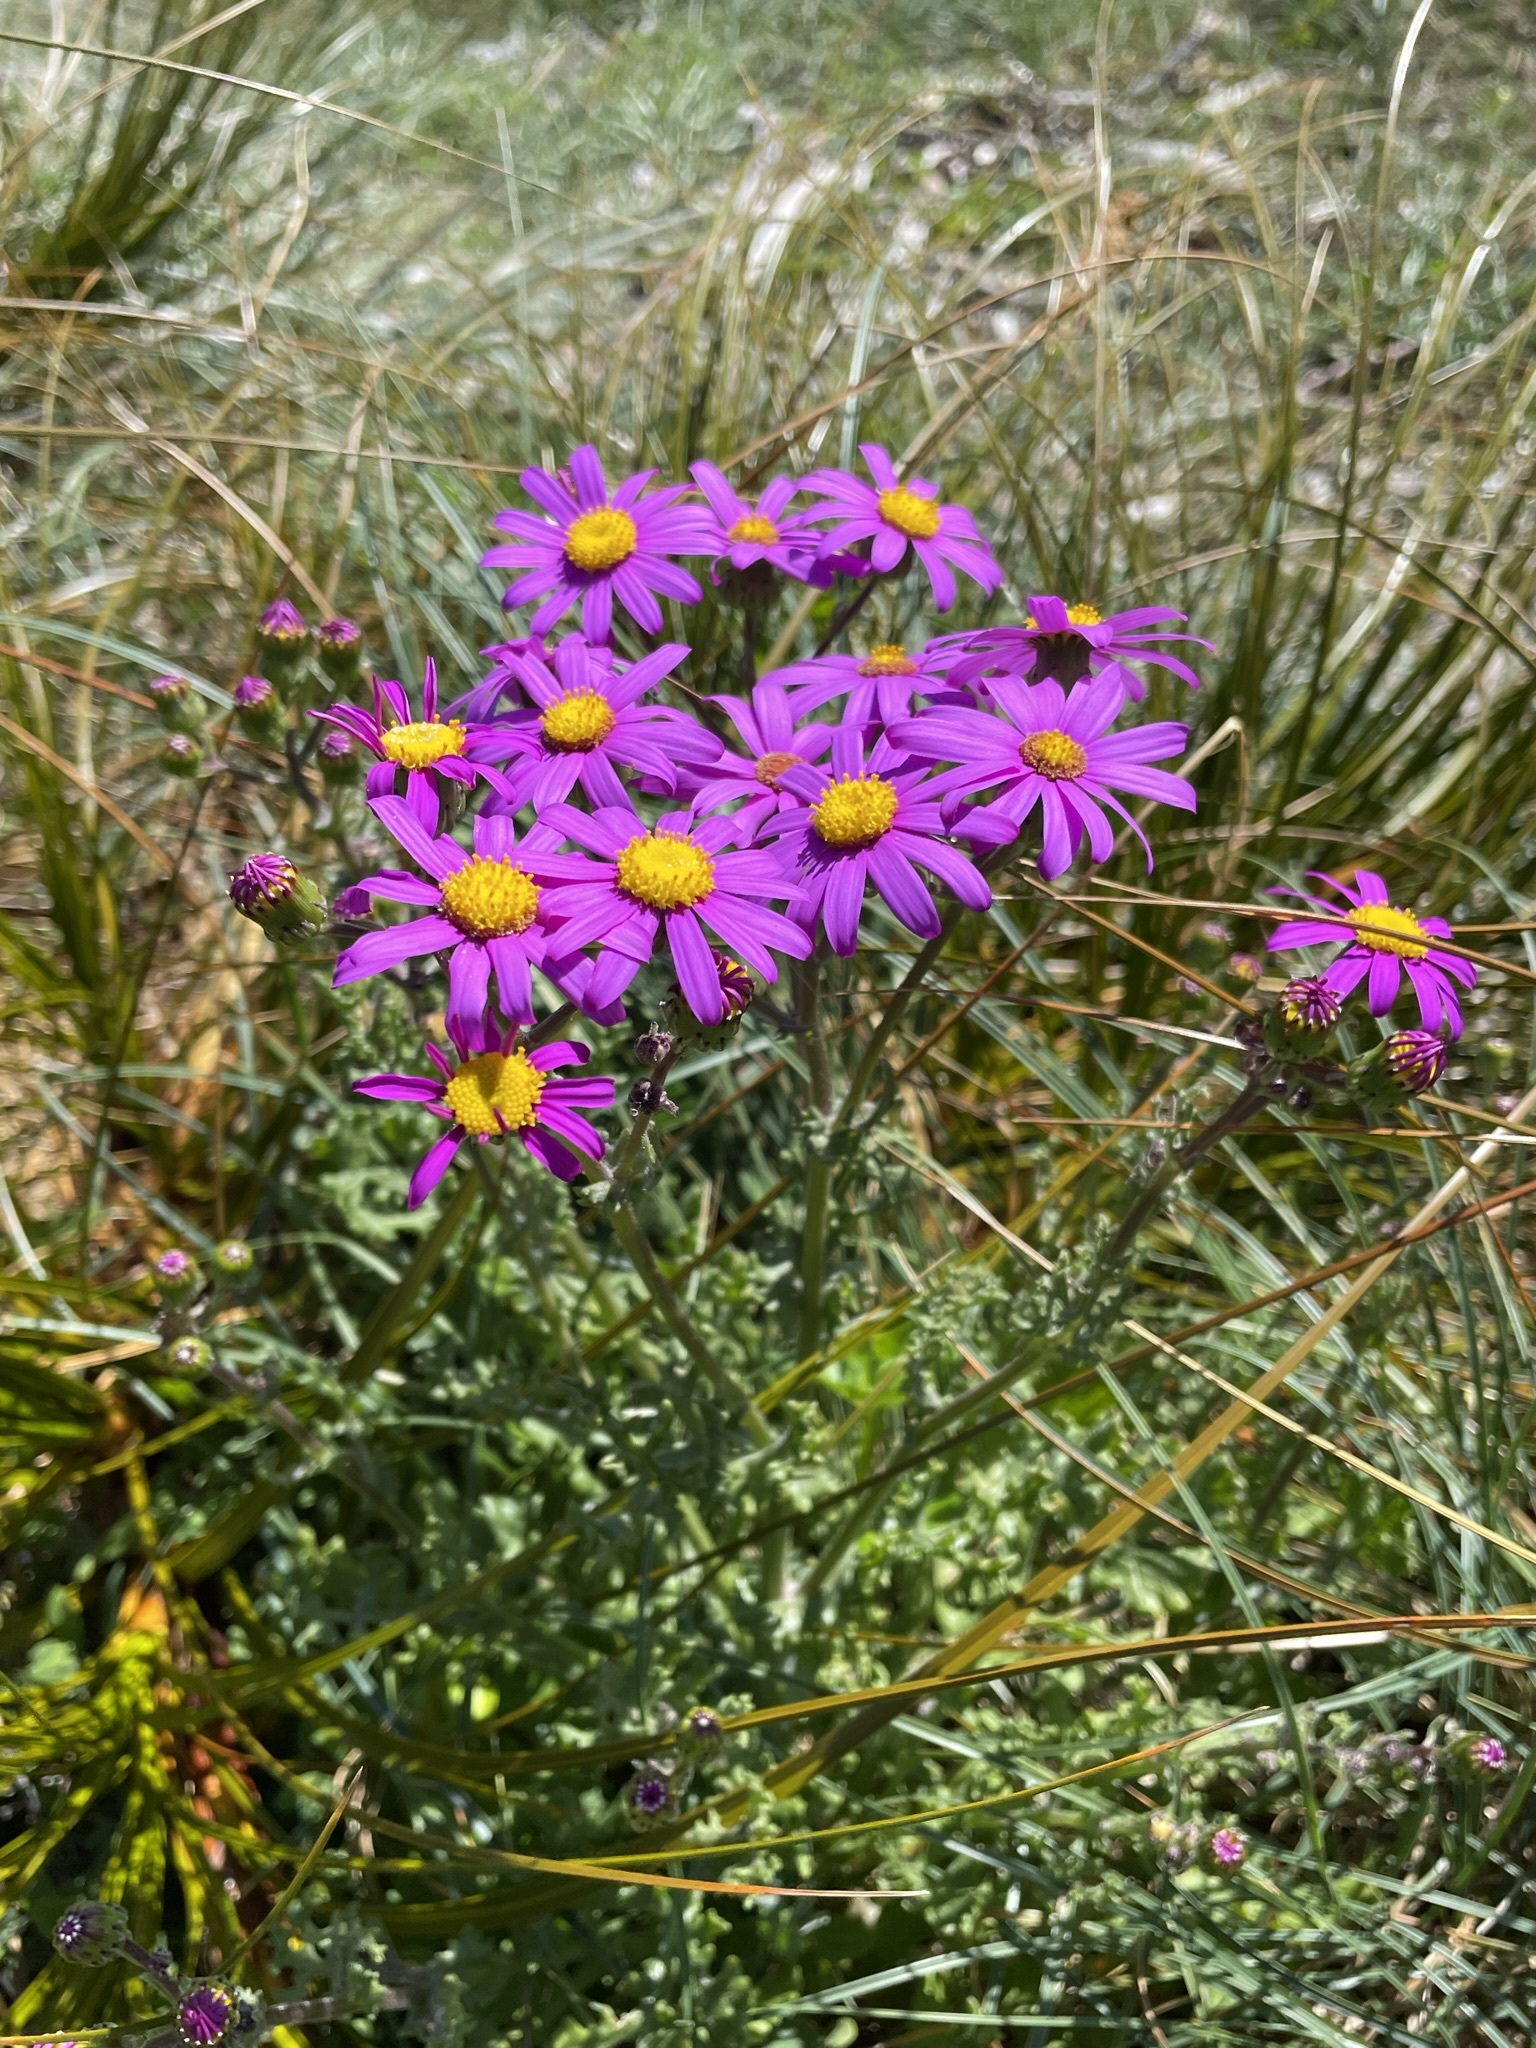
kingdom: Plantae
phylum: Tracheophyta
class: Magnoliopsida
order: Asterales
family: Asteraceae
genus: Senecio
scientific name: Senecio elegans
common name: Purple groundsel
